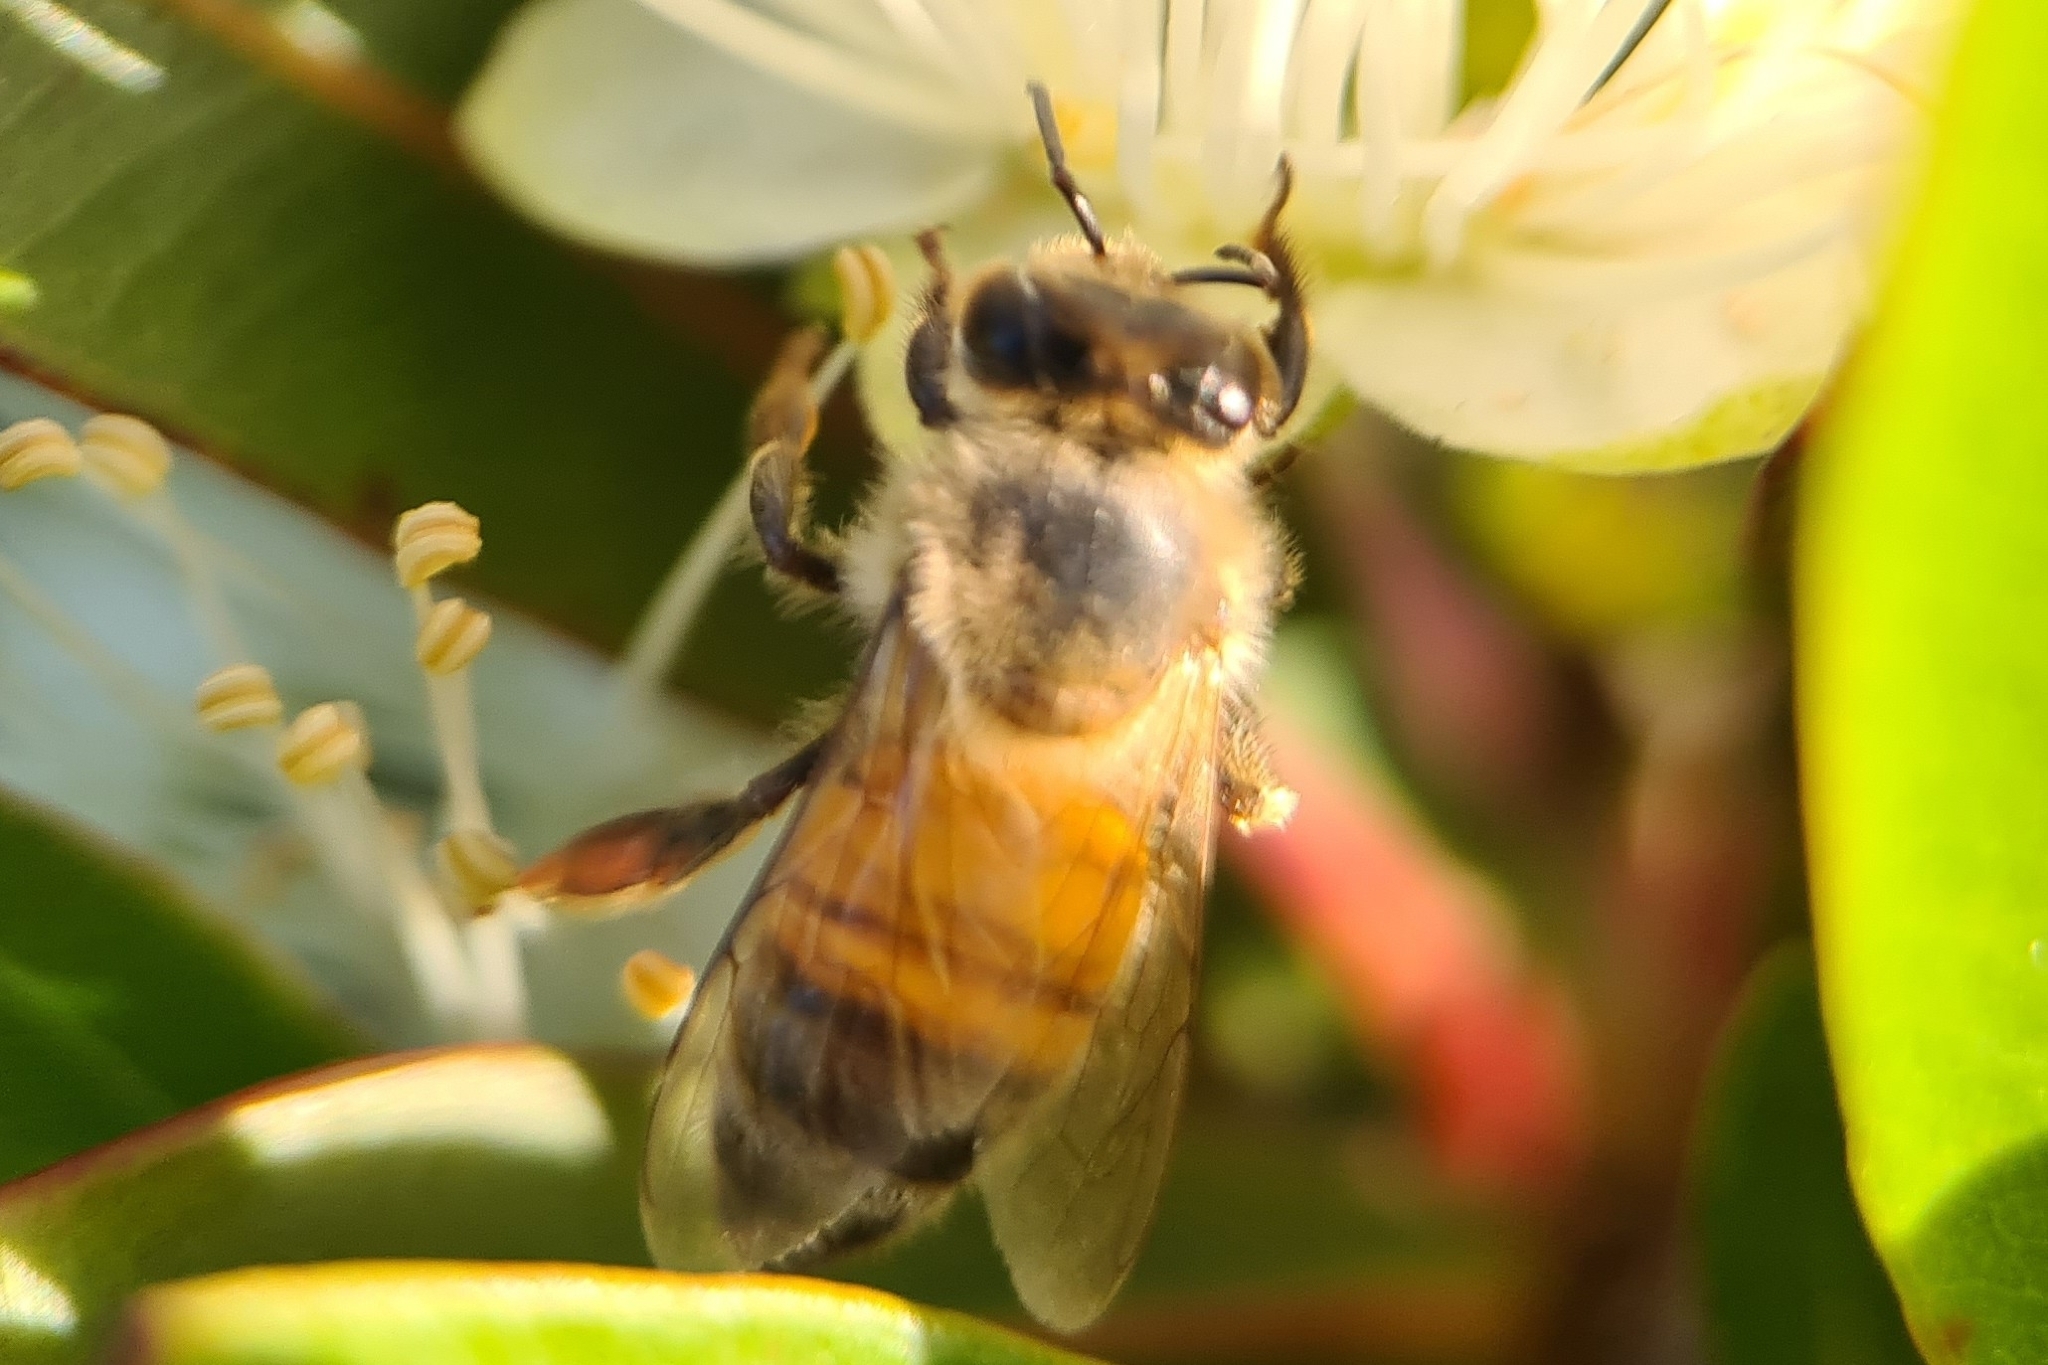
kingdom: Animalia
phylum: Arthropoda
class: Insecta
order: Hymenoptera
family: Apidae
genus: Apis
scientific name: Apis mellifera
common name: Honey bee
